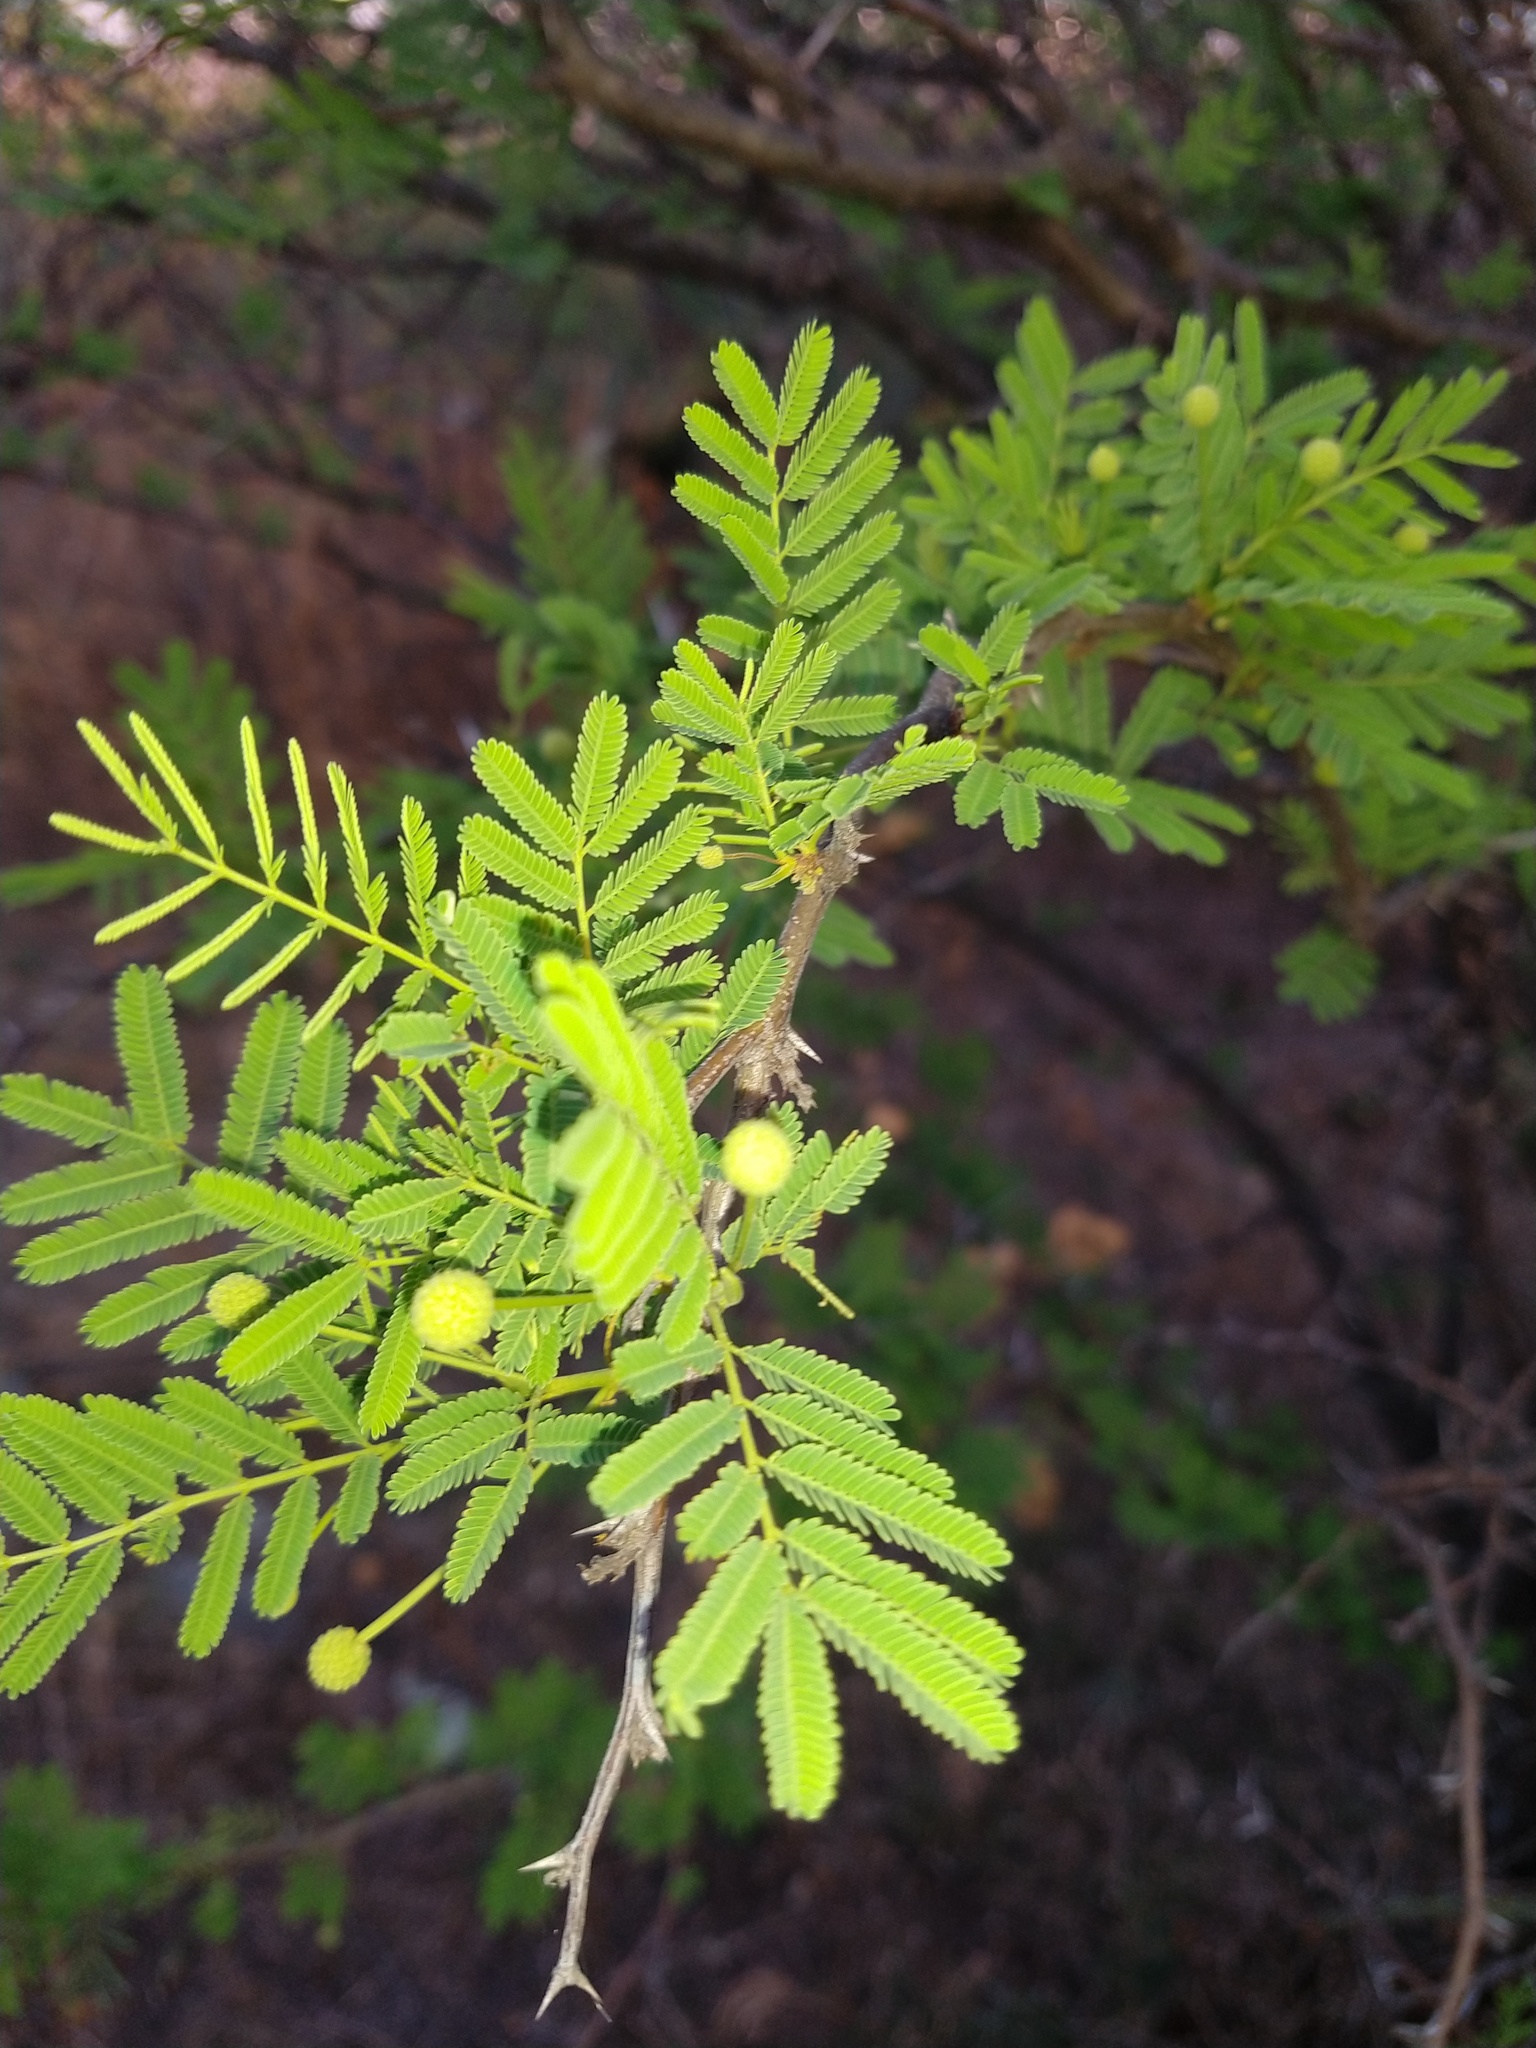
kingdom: Plantae
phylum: Tracheophyta
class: Magnoliopsida
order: Fabales
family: Fabaceae
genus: Vachellia
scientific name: Vachellia aroma
